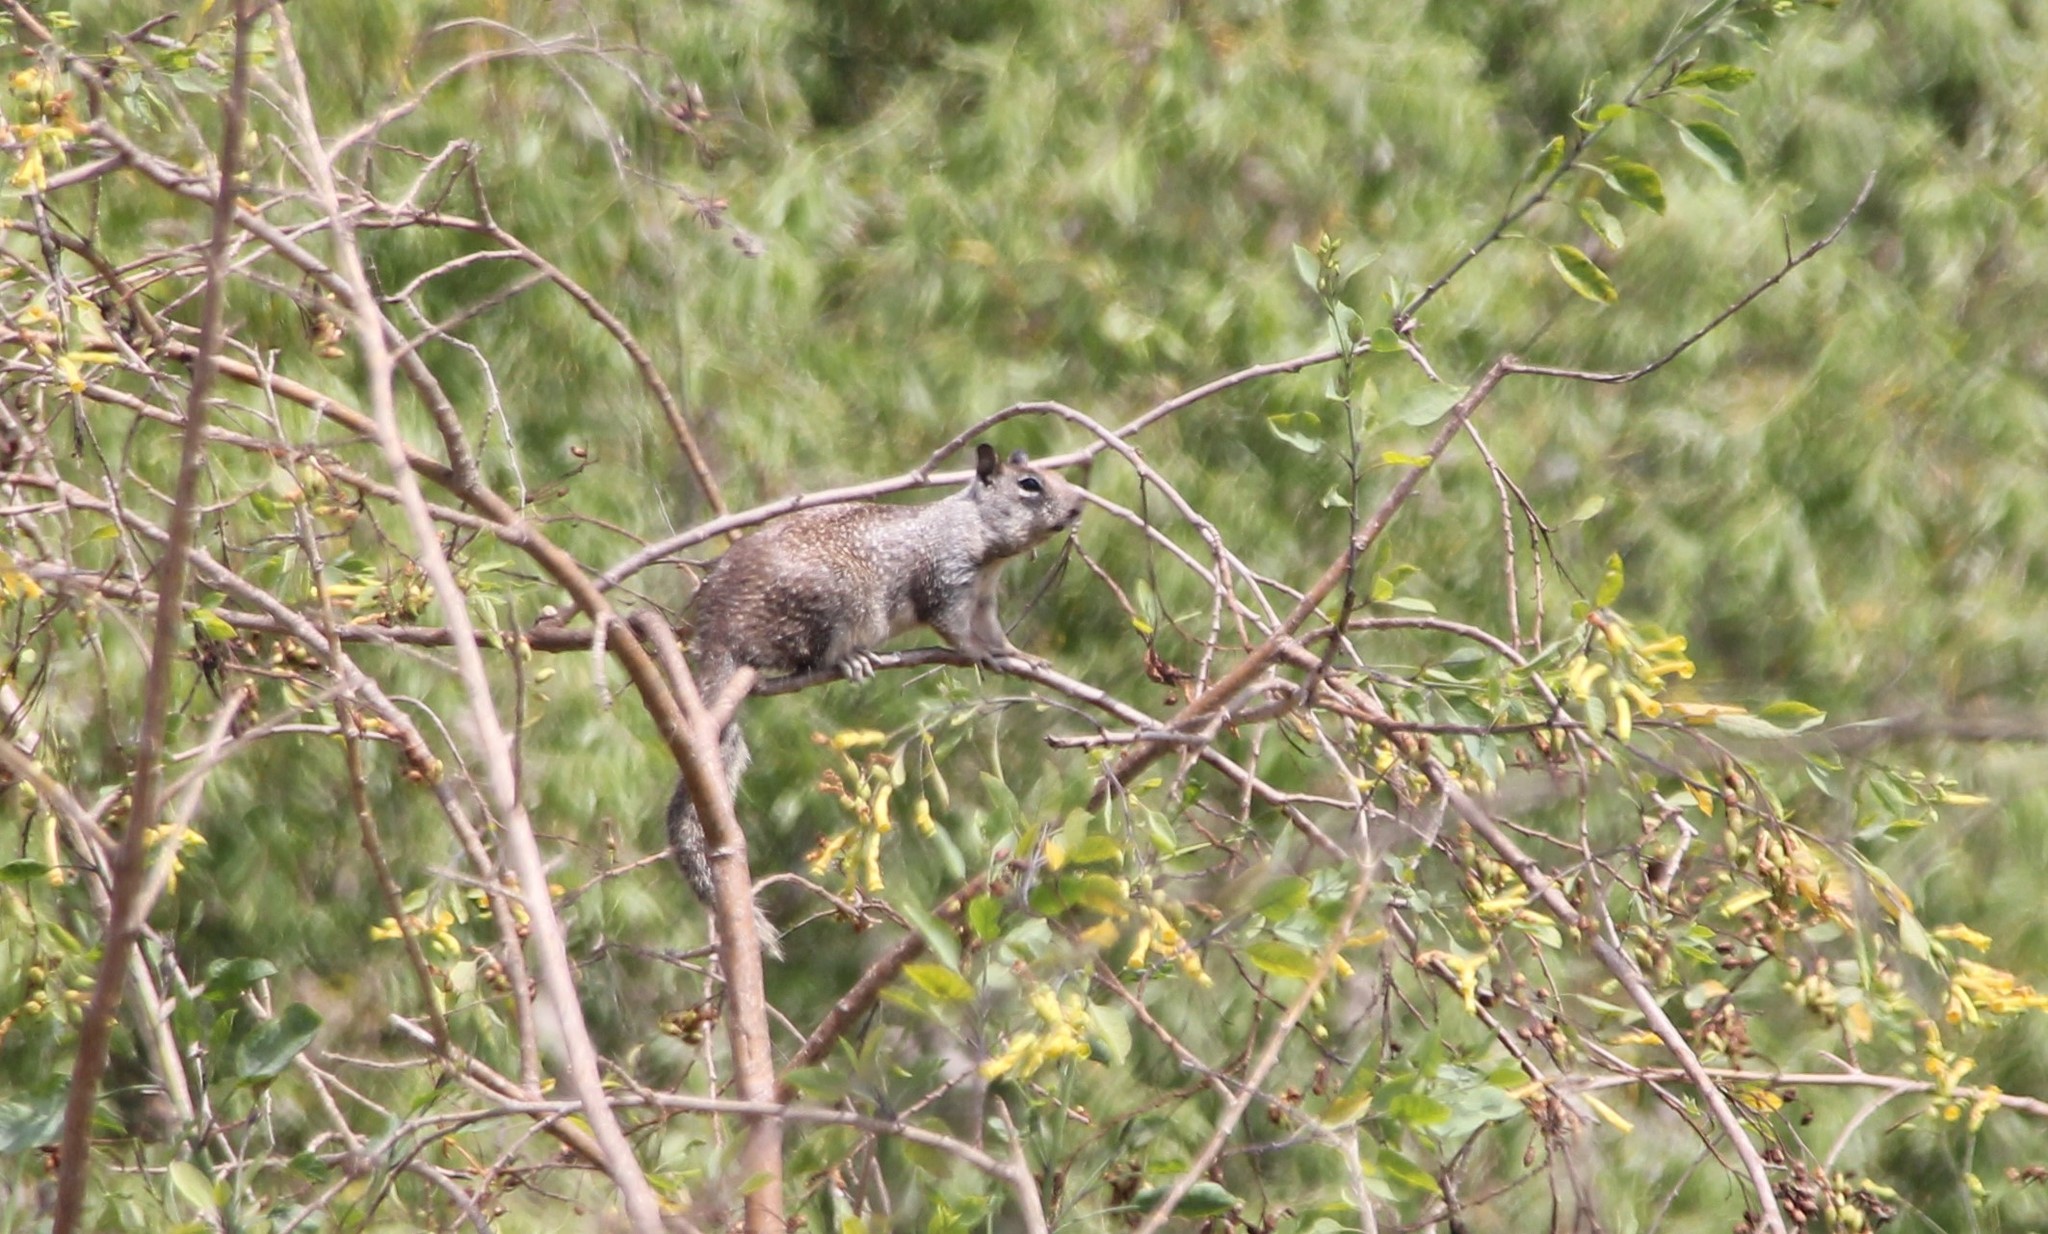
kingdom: Animalia
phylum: Chordata
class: Mammalia
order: Rodentia
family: Sciuridae
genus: Otospermophilus
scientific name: Otospermophilus beecheyi
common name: California ground squirrel
